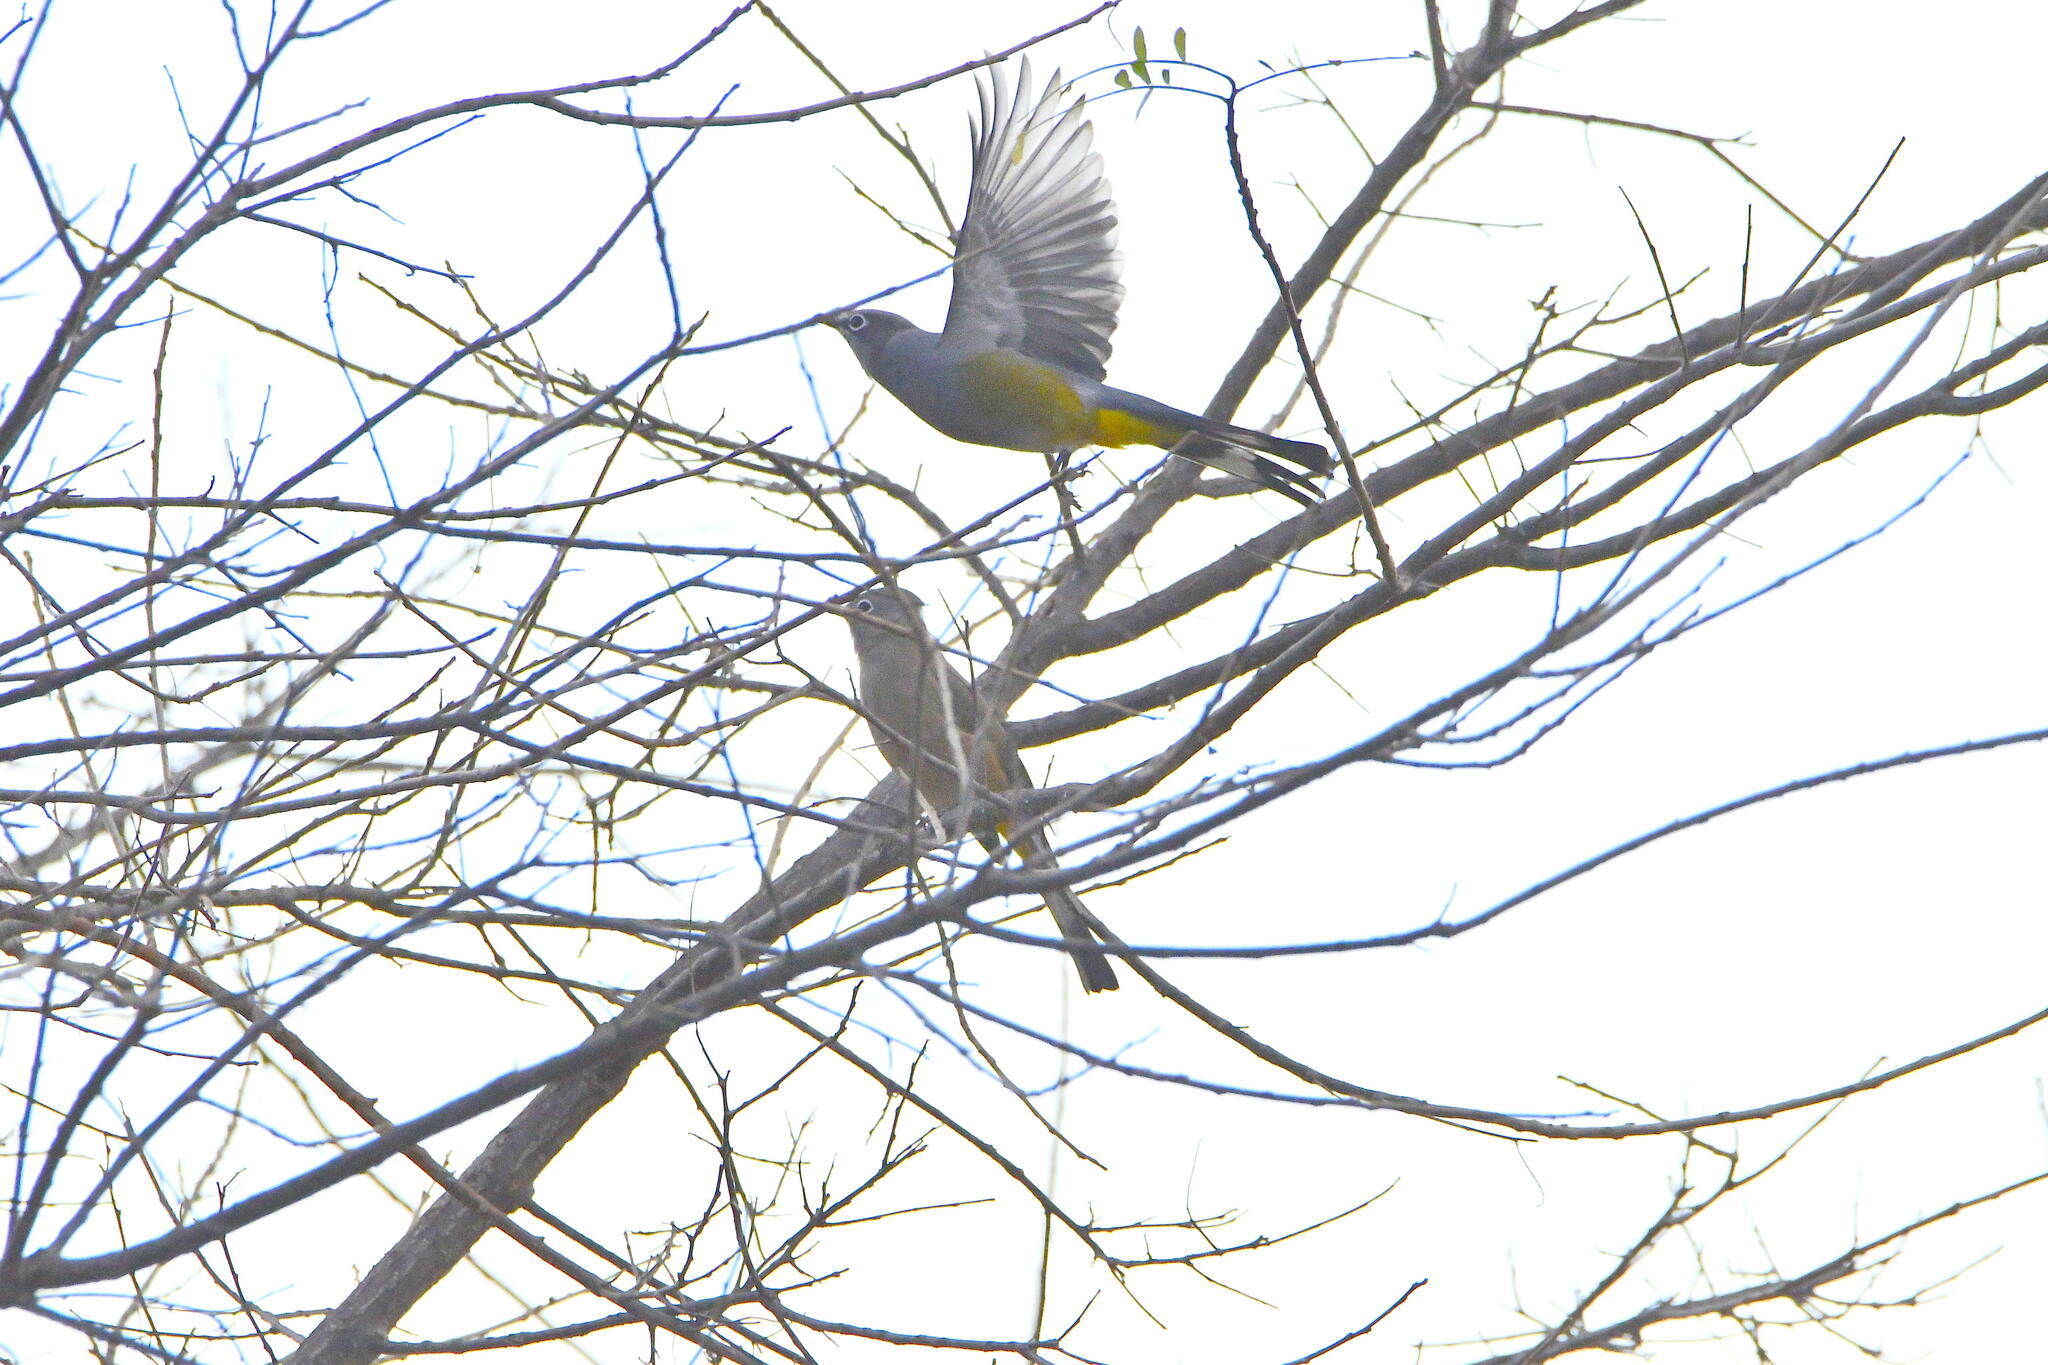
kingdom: Animalia
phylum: Chordata
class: Aves
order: Passeriformes
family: Ptilogonatidae
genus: Ptilogonys
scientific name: Ptilogonys cinereus
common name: Gray silky-flycatcher
